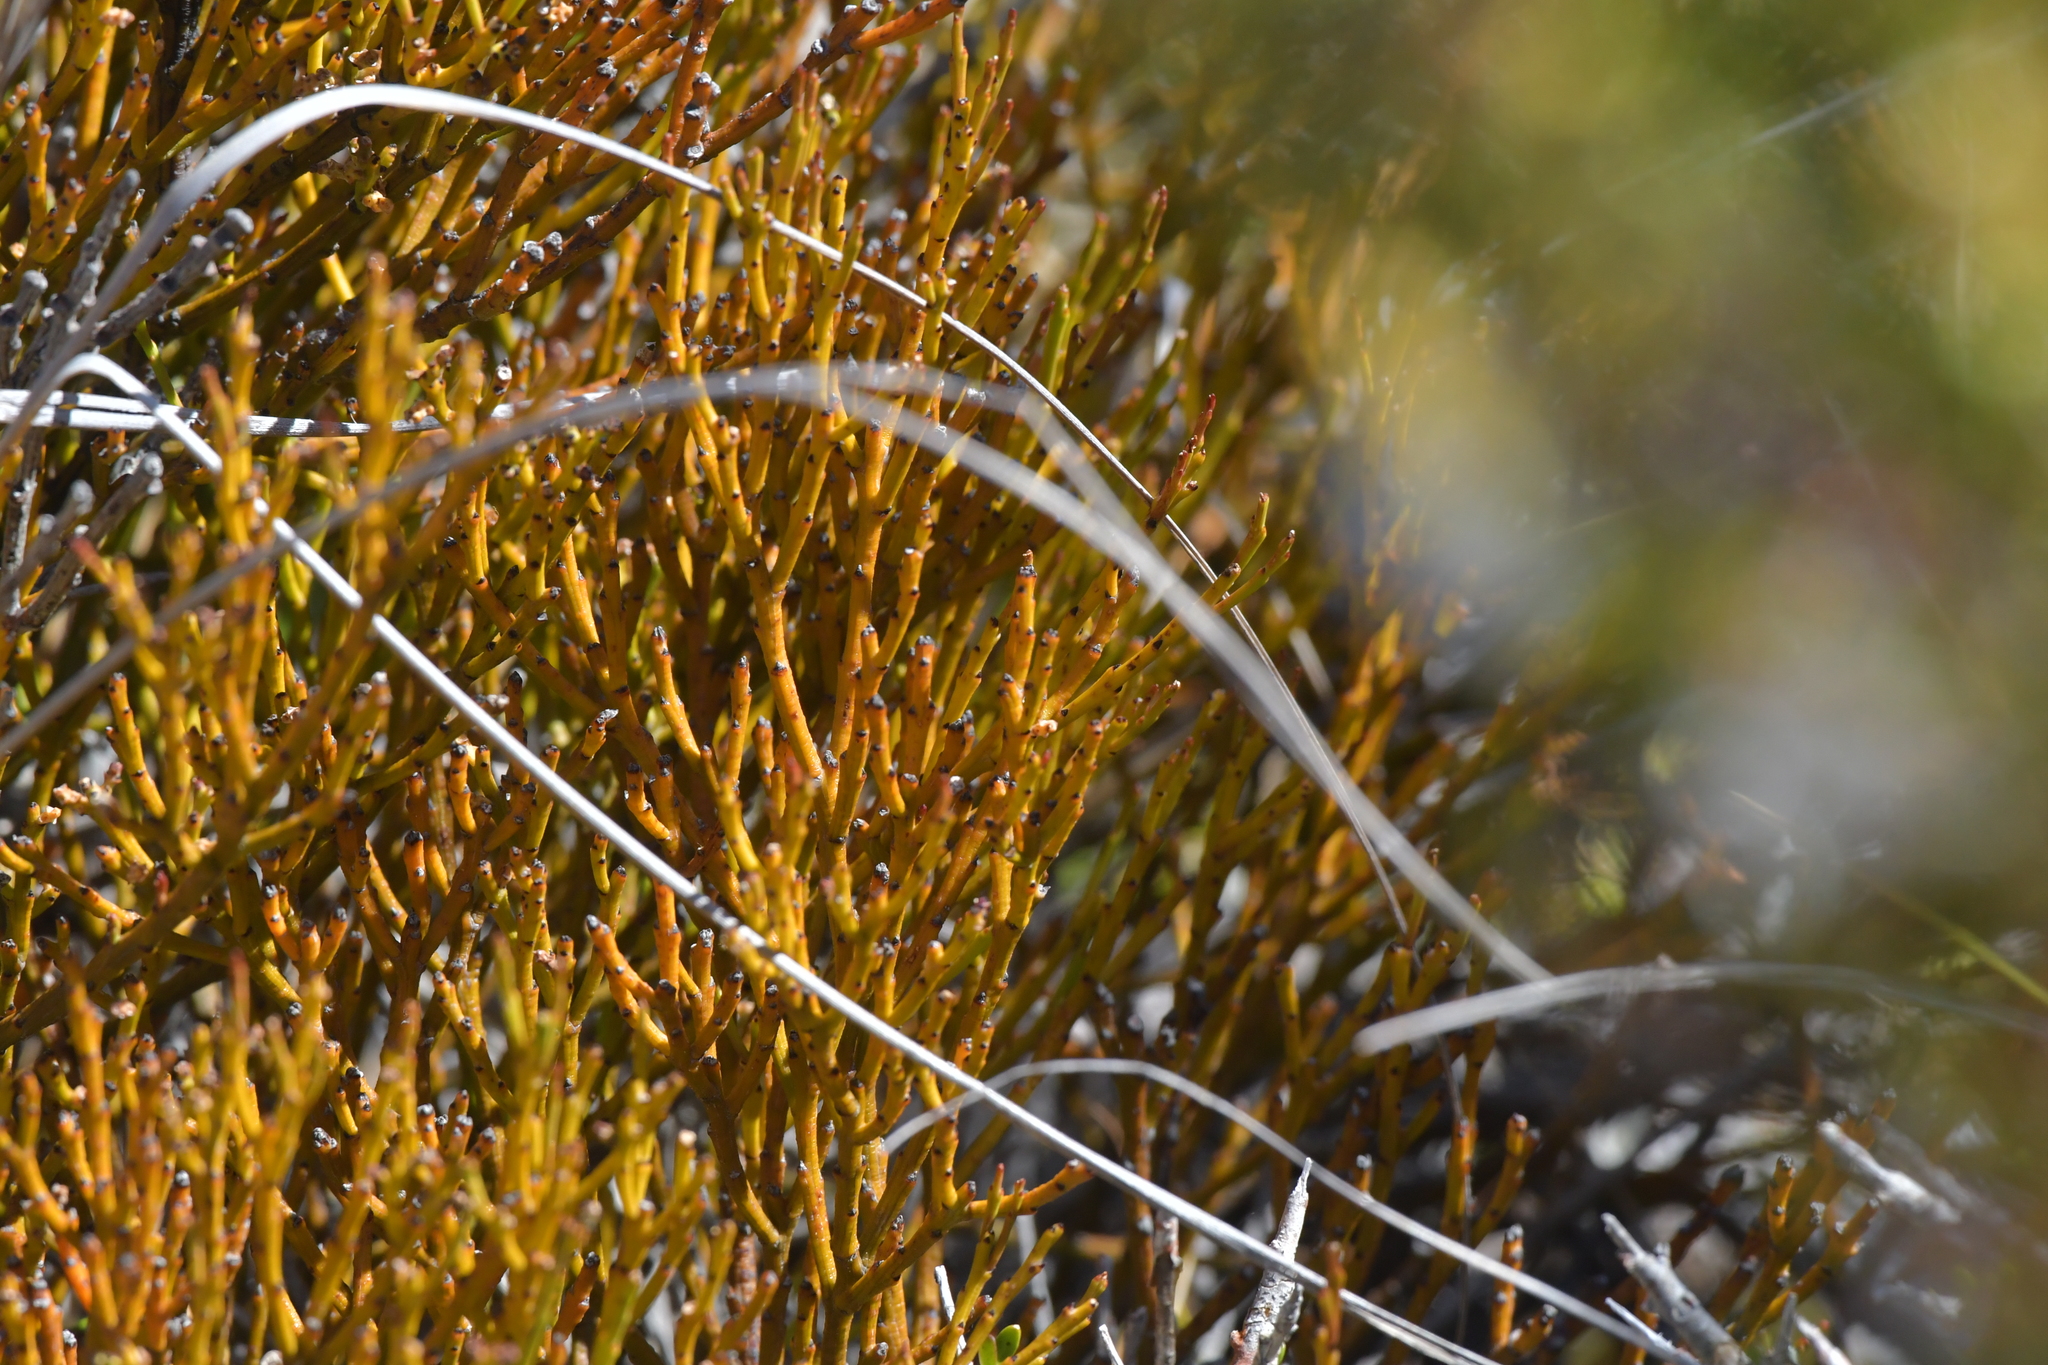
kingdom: Plantae
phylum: Tracheophyta
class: Magnoliopsida
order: Santalales
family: Santalaceae
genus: Exocarpos
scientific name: Exocarpos bidwillii
